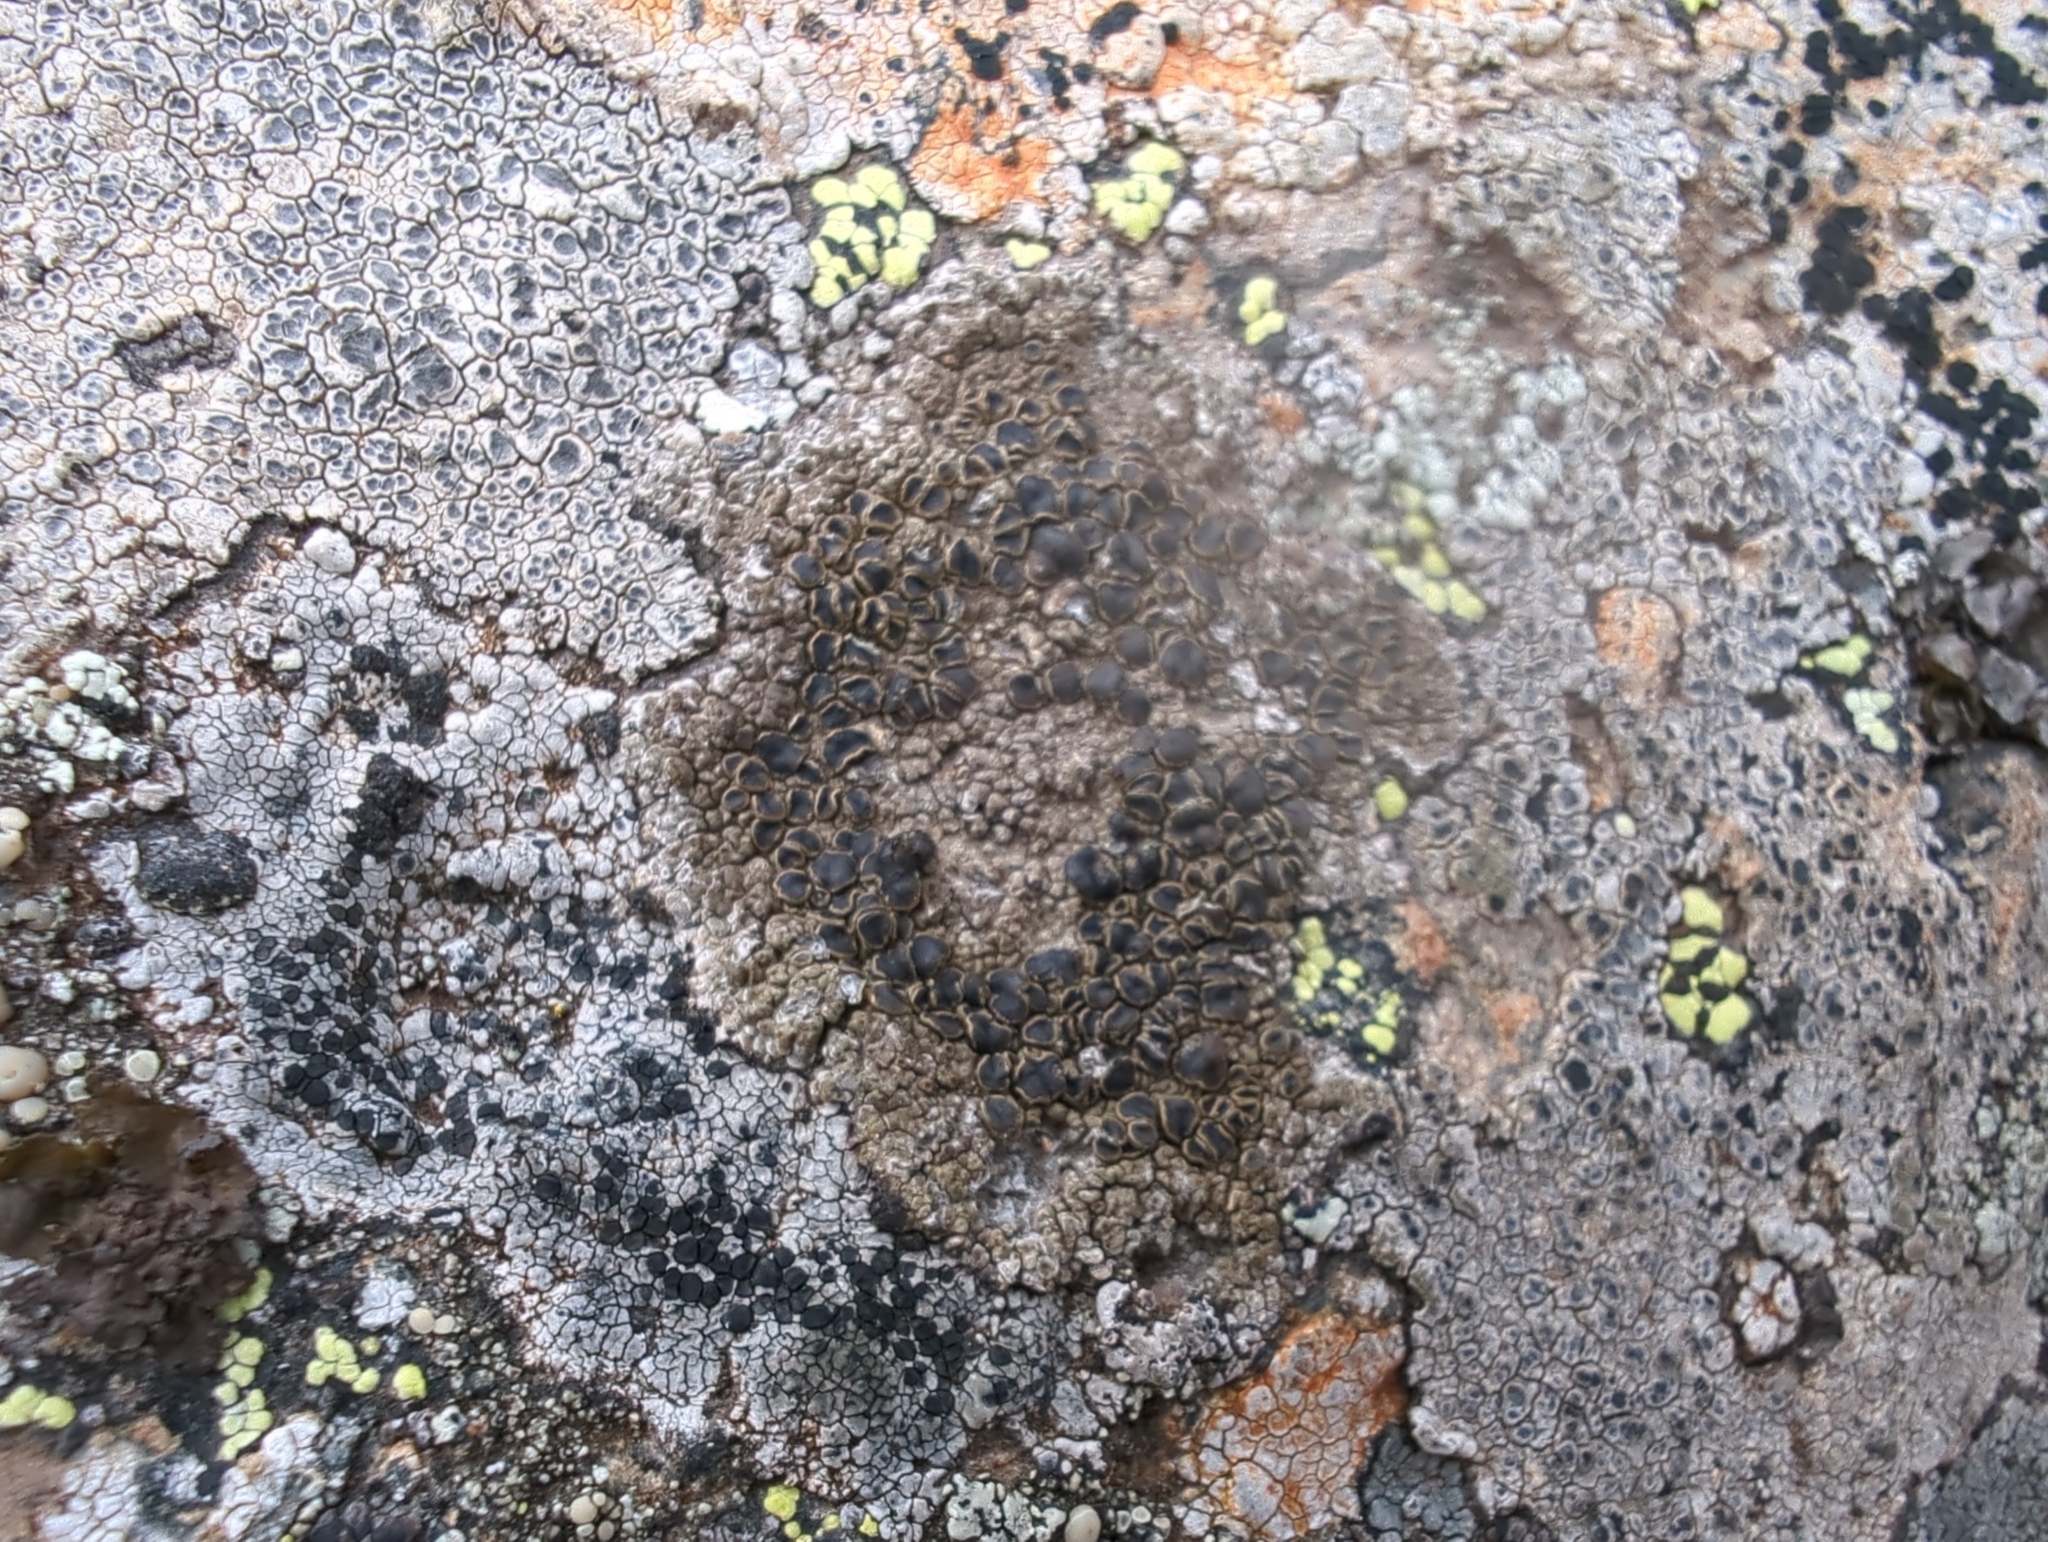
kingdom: Fungi
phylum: Ascomycota
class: Lecanoromycetes
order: Lecanorales
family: Parmeliaceae
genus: Protoparmelia
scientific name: Protoparmelia badia
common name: Chocolate rim lichen
